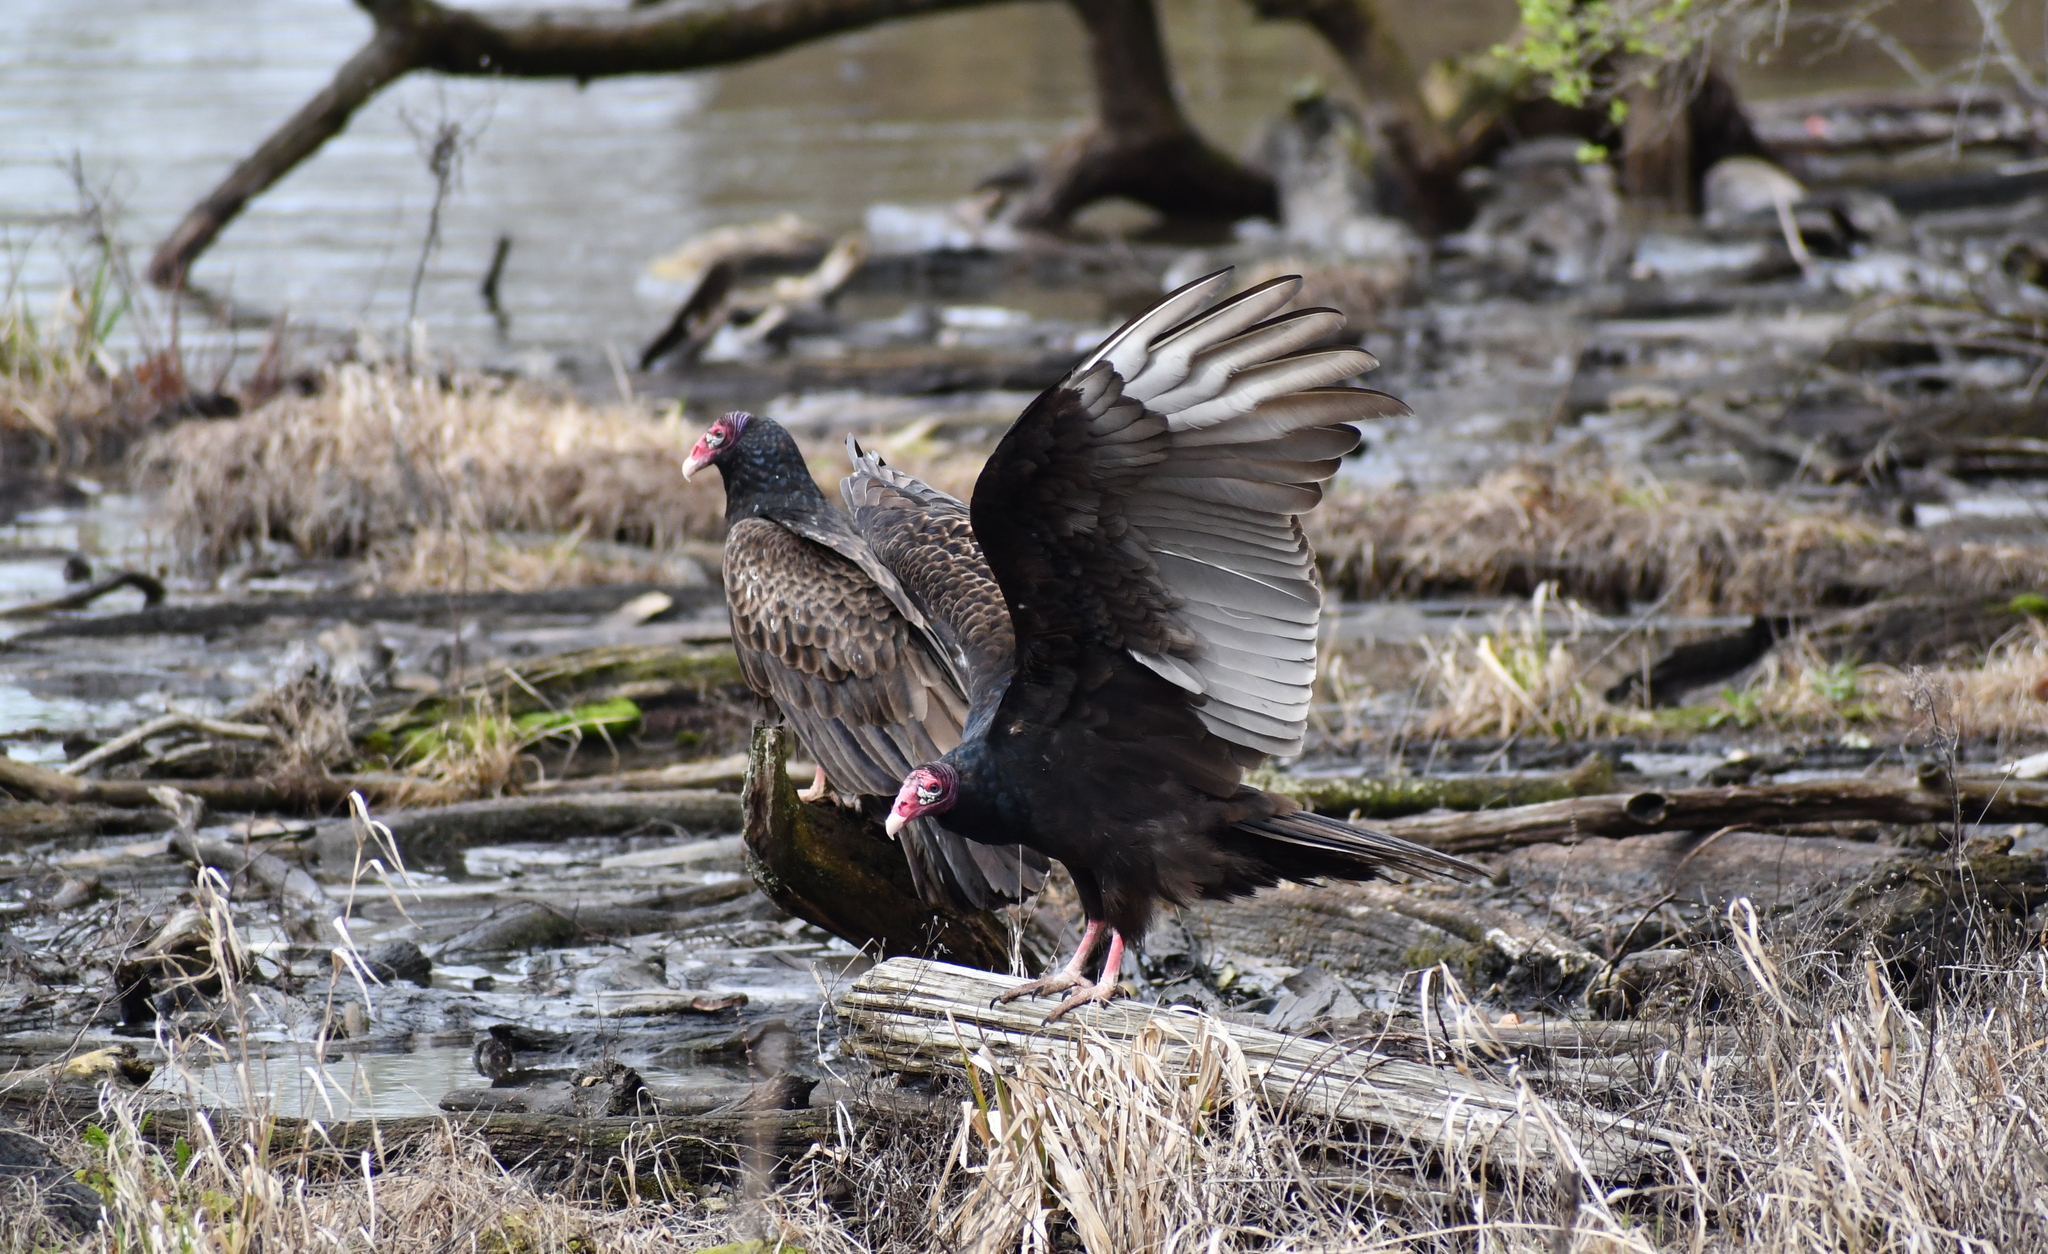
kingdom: Animalia
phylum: Chordata
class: Aves
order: Accipitriformes
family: Cathartidae
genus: Cathartes
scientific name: Cathartes aura
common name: Turkey vulture
